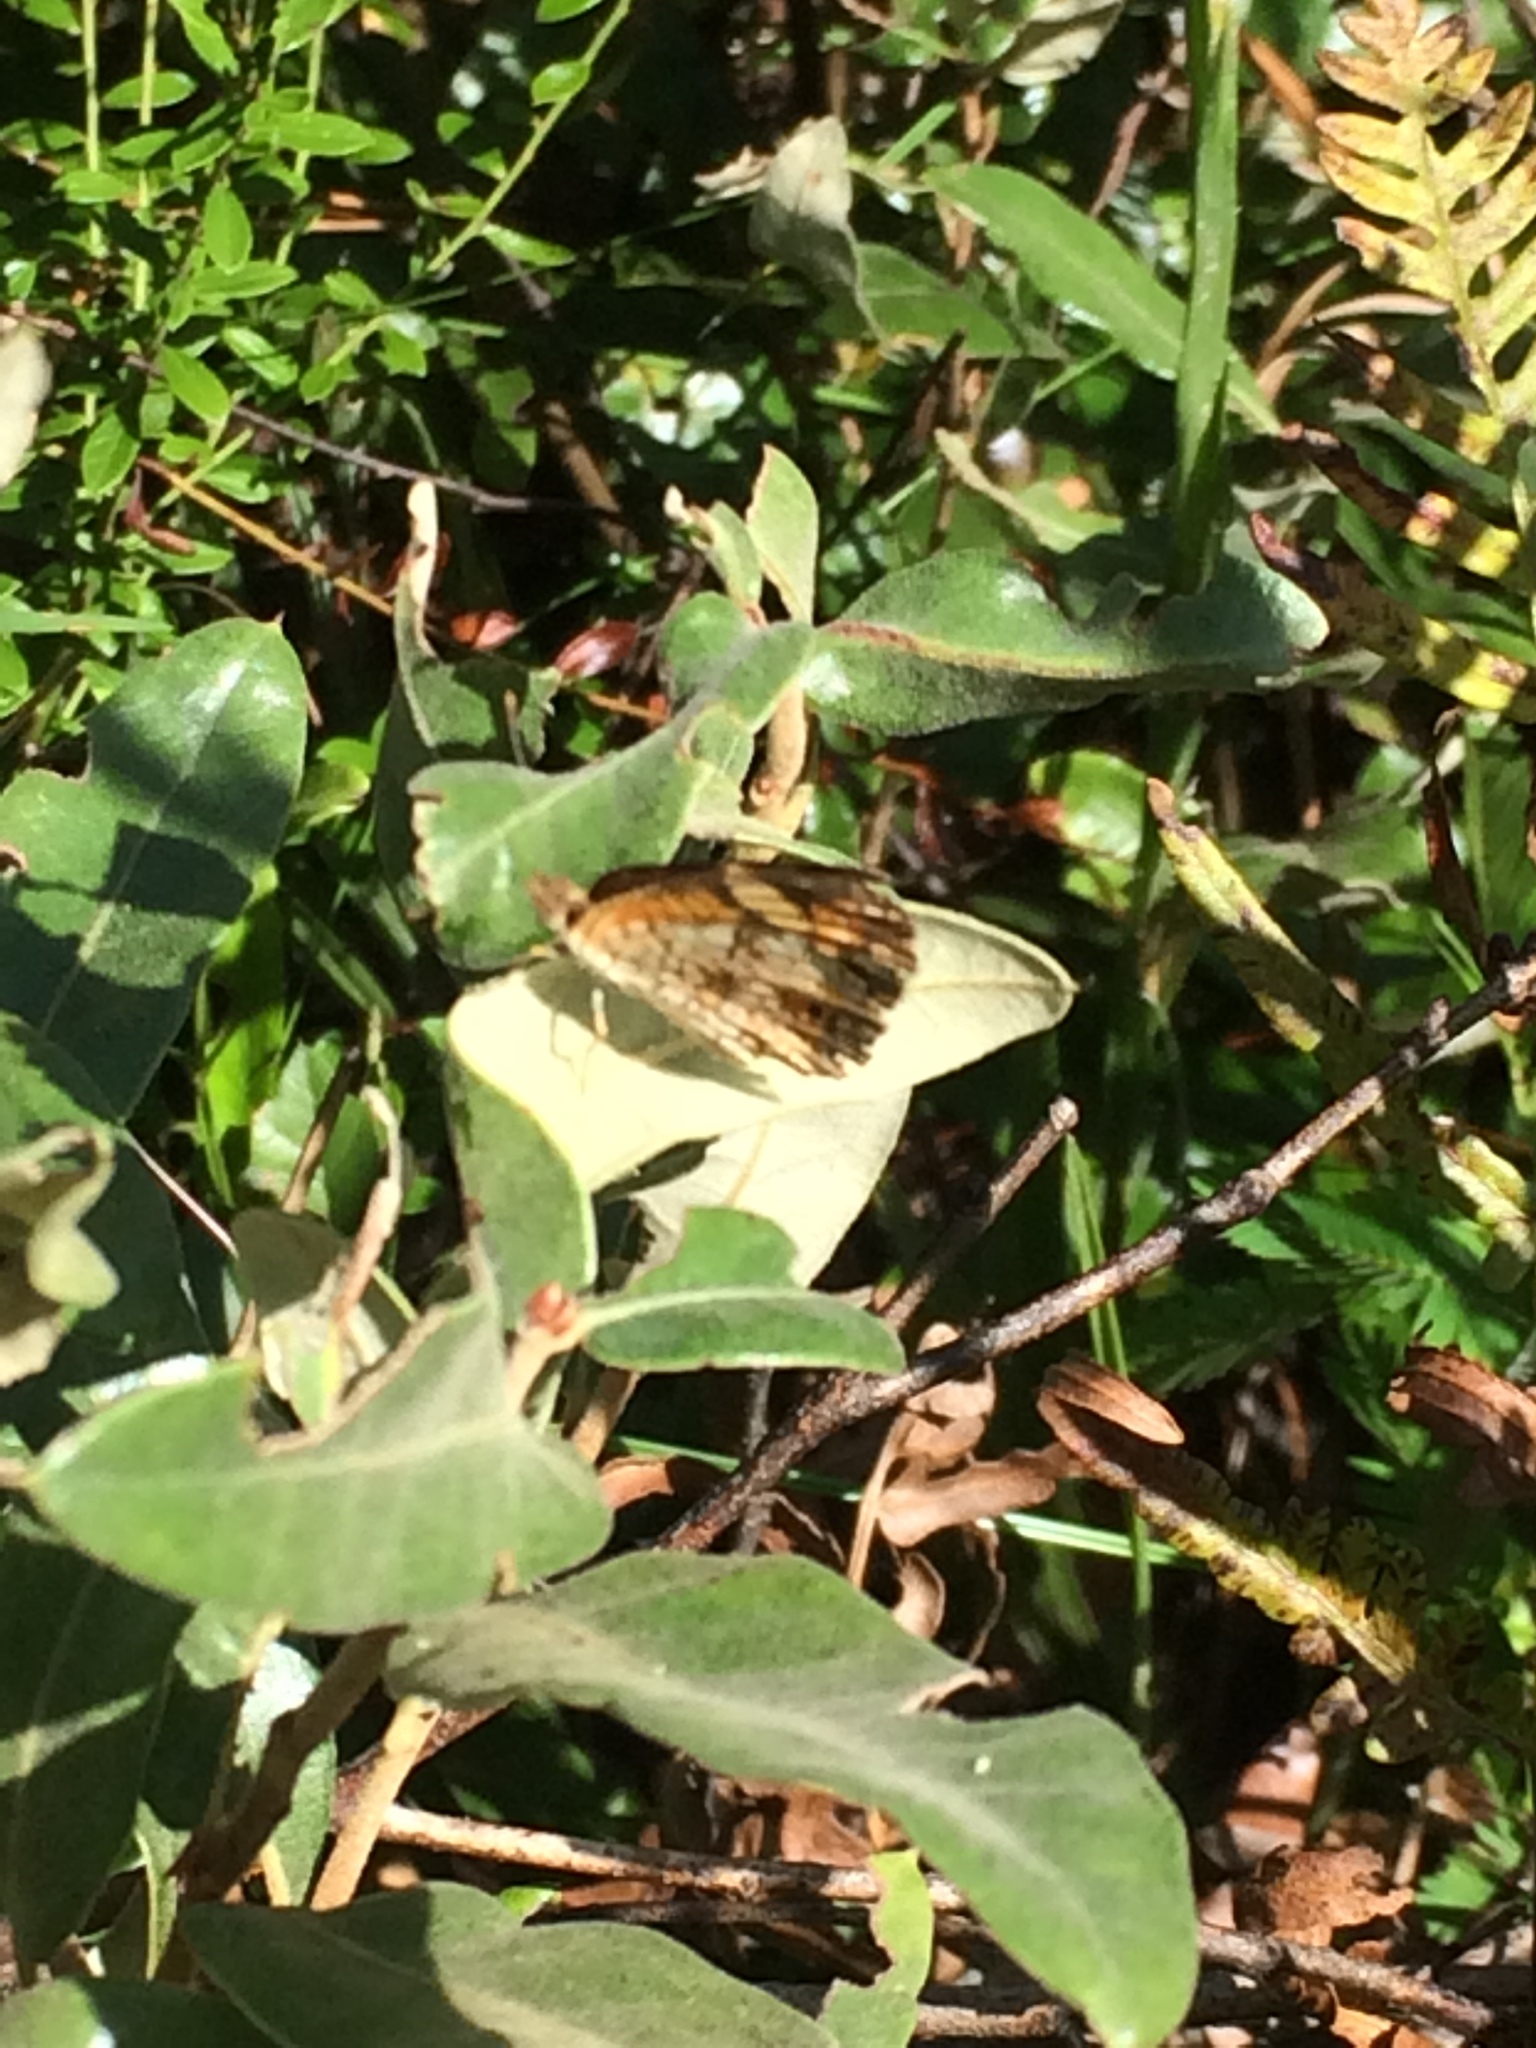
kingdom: Animalia
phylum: Arthropoda
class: Insecta
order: Lepidoptera
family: Nymphalidae
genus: Phyciodes
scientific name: Phyciodes tharos
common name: Pearl crescent
